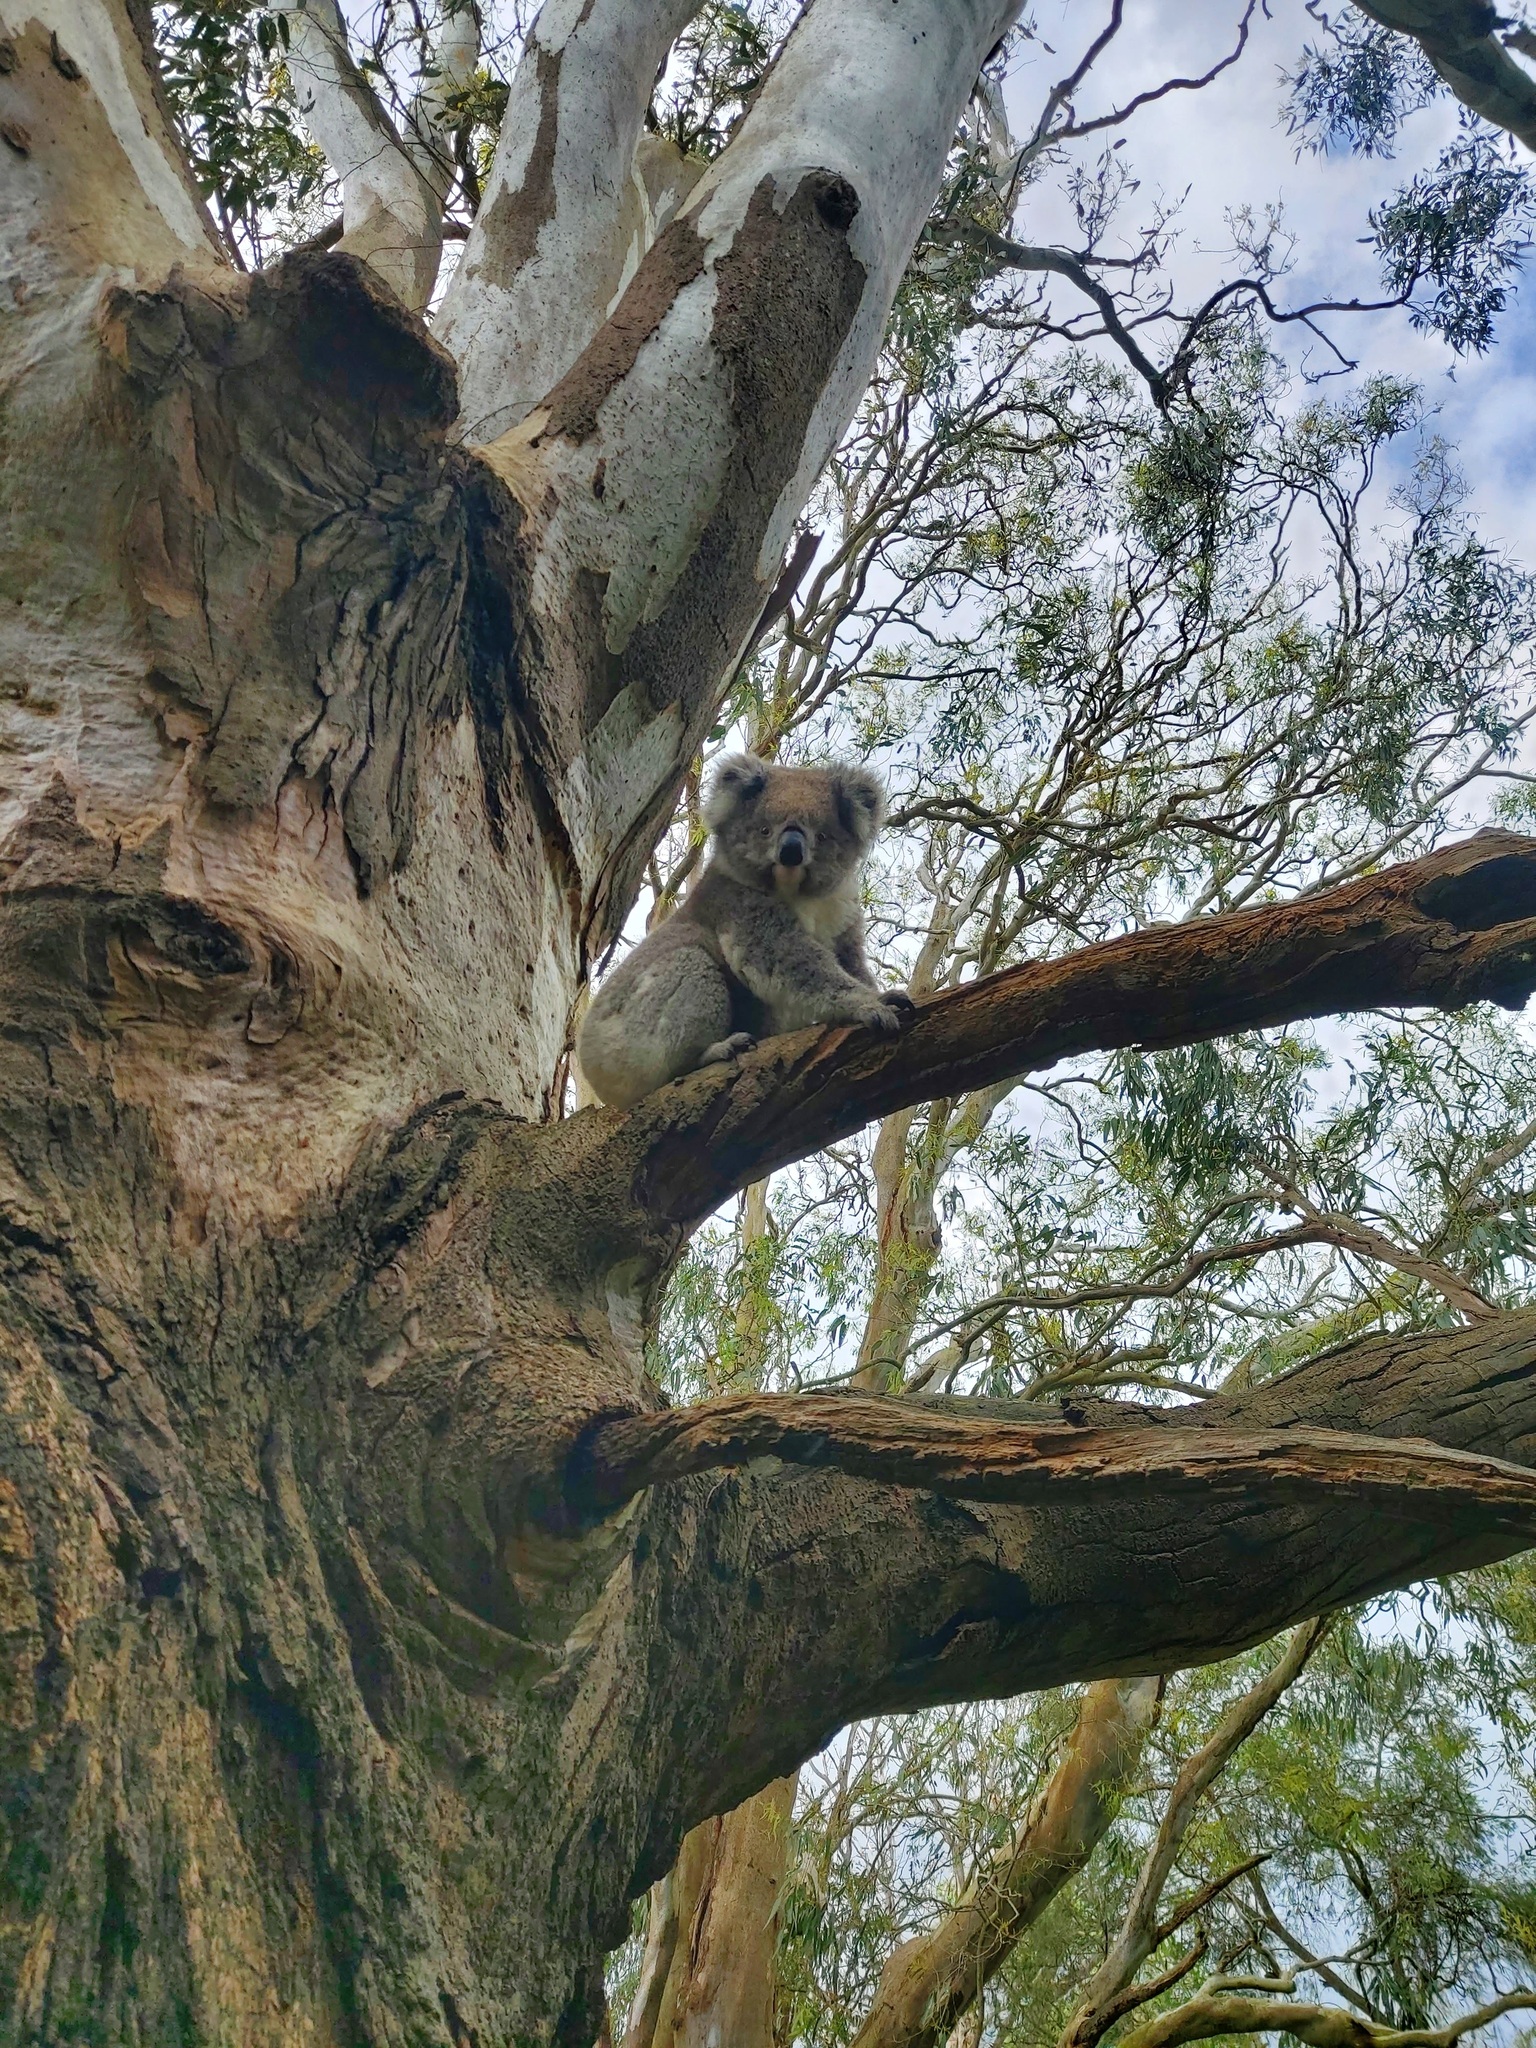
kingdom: Animalia
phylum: Chordata
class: Mammalia
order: Diprotodontia
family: Phascolarctidae
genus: Phascolarctos
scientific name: Phascolarctos cinereus
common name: Koala
